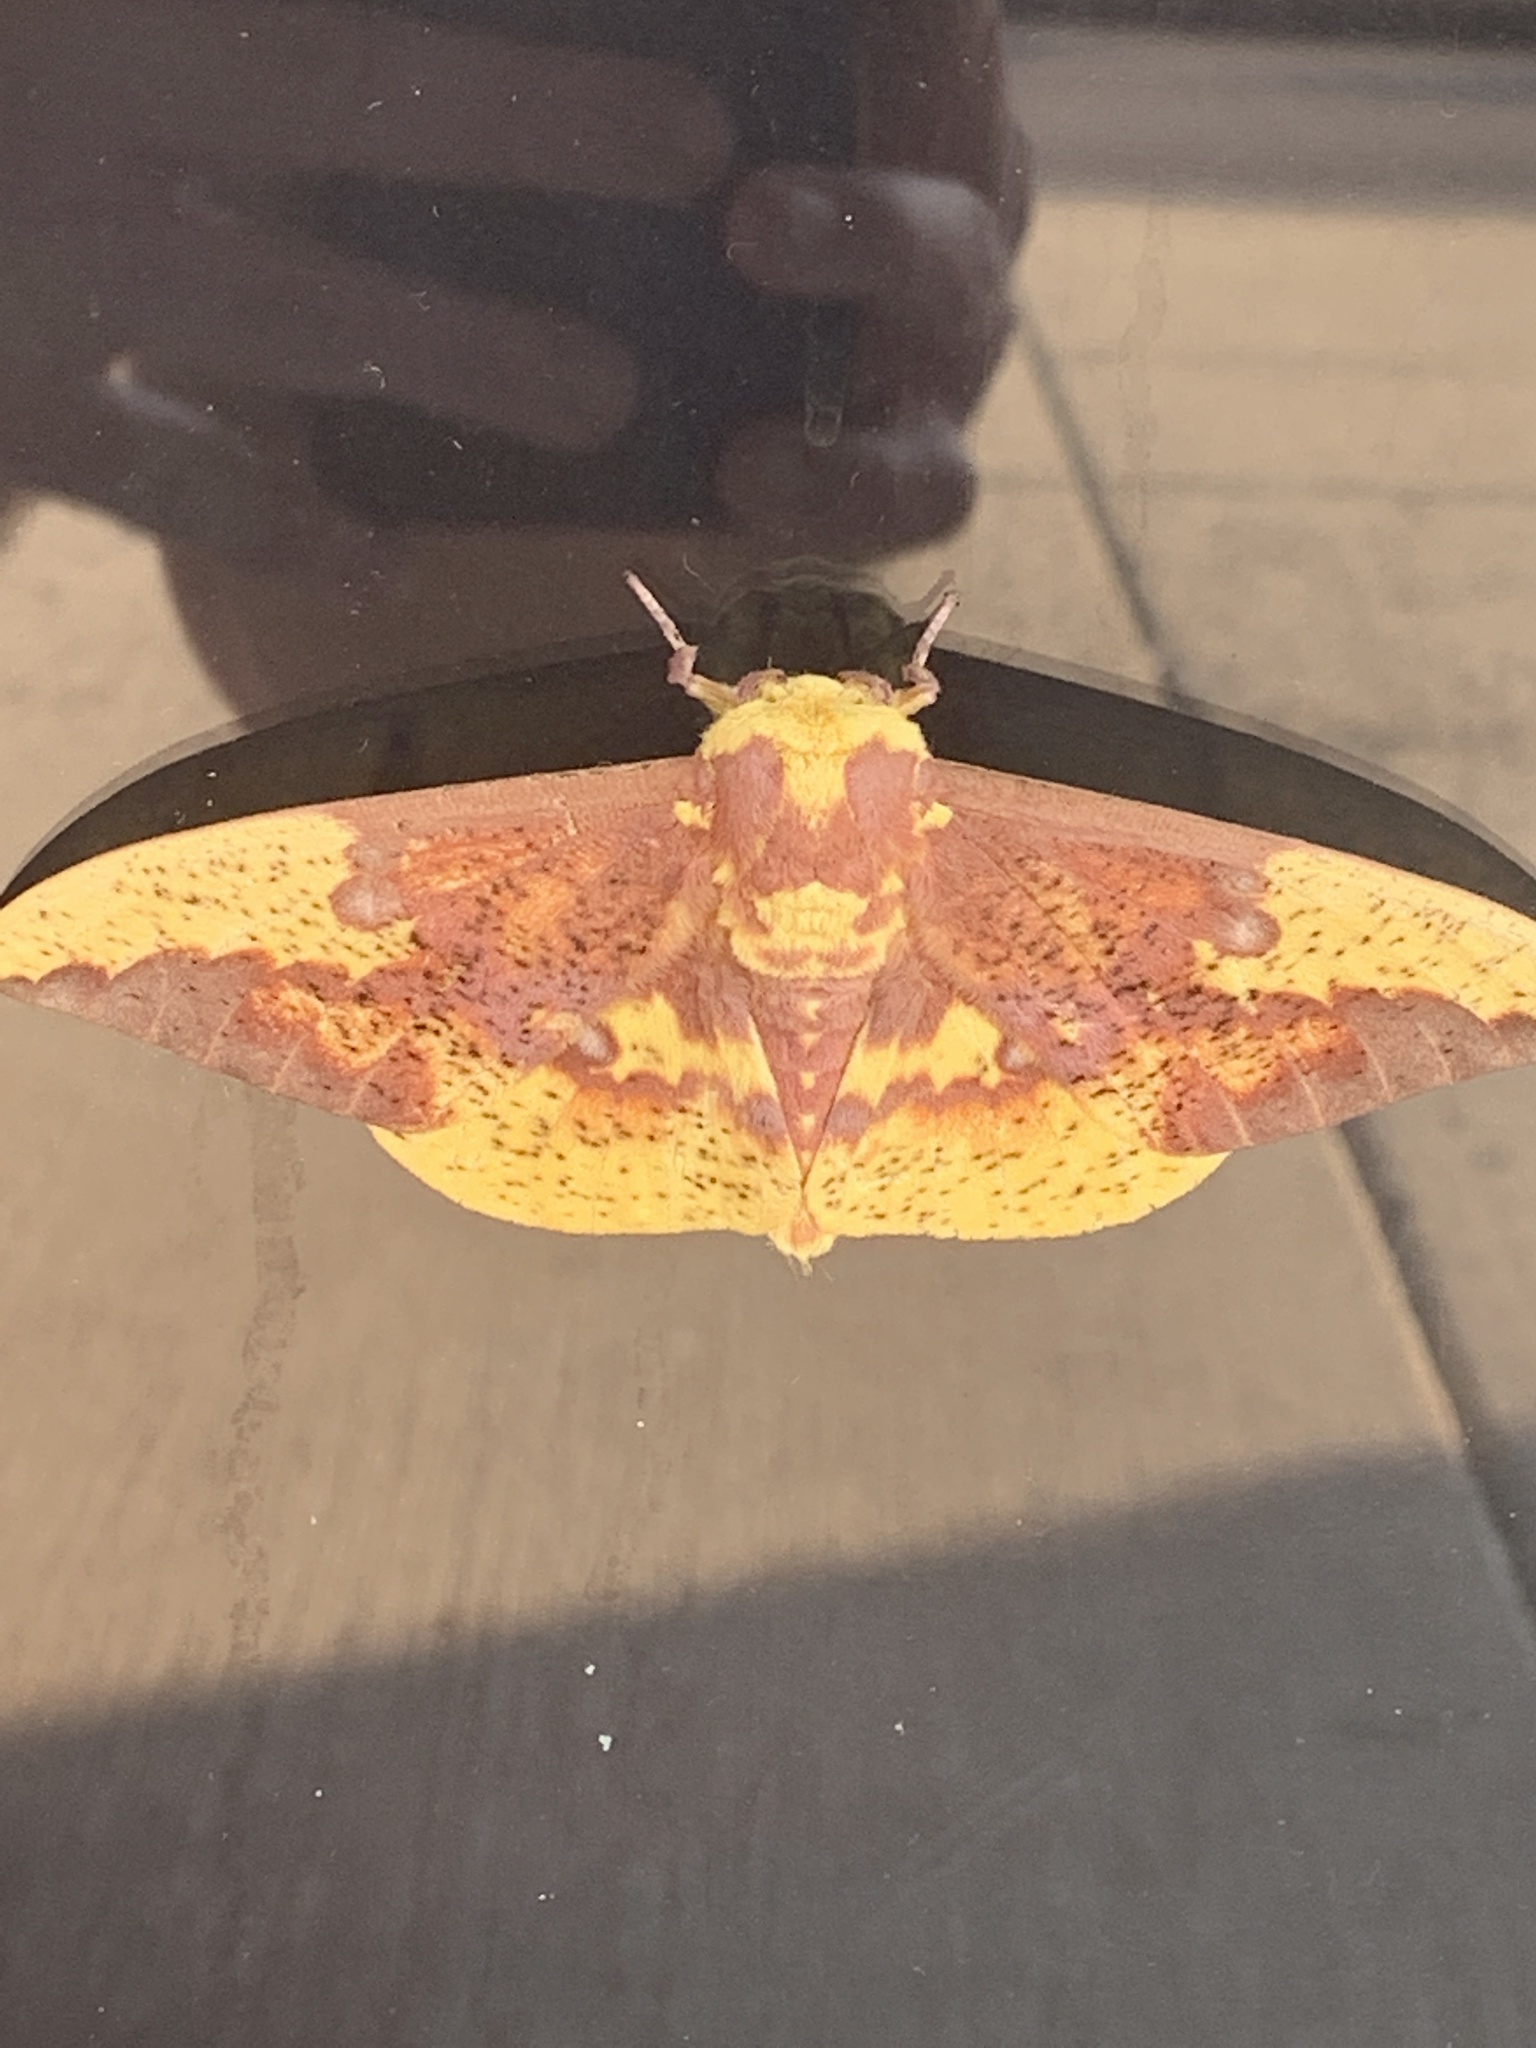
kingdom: Animalia
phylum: Arthropoda
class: Insecta
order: Lepidoptera
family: Saturniidae
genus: Eacles
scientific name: Eacles imperialis
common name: Imperial moth
